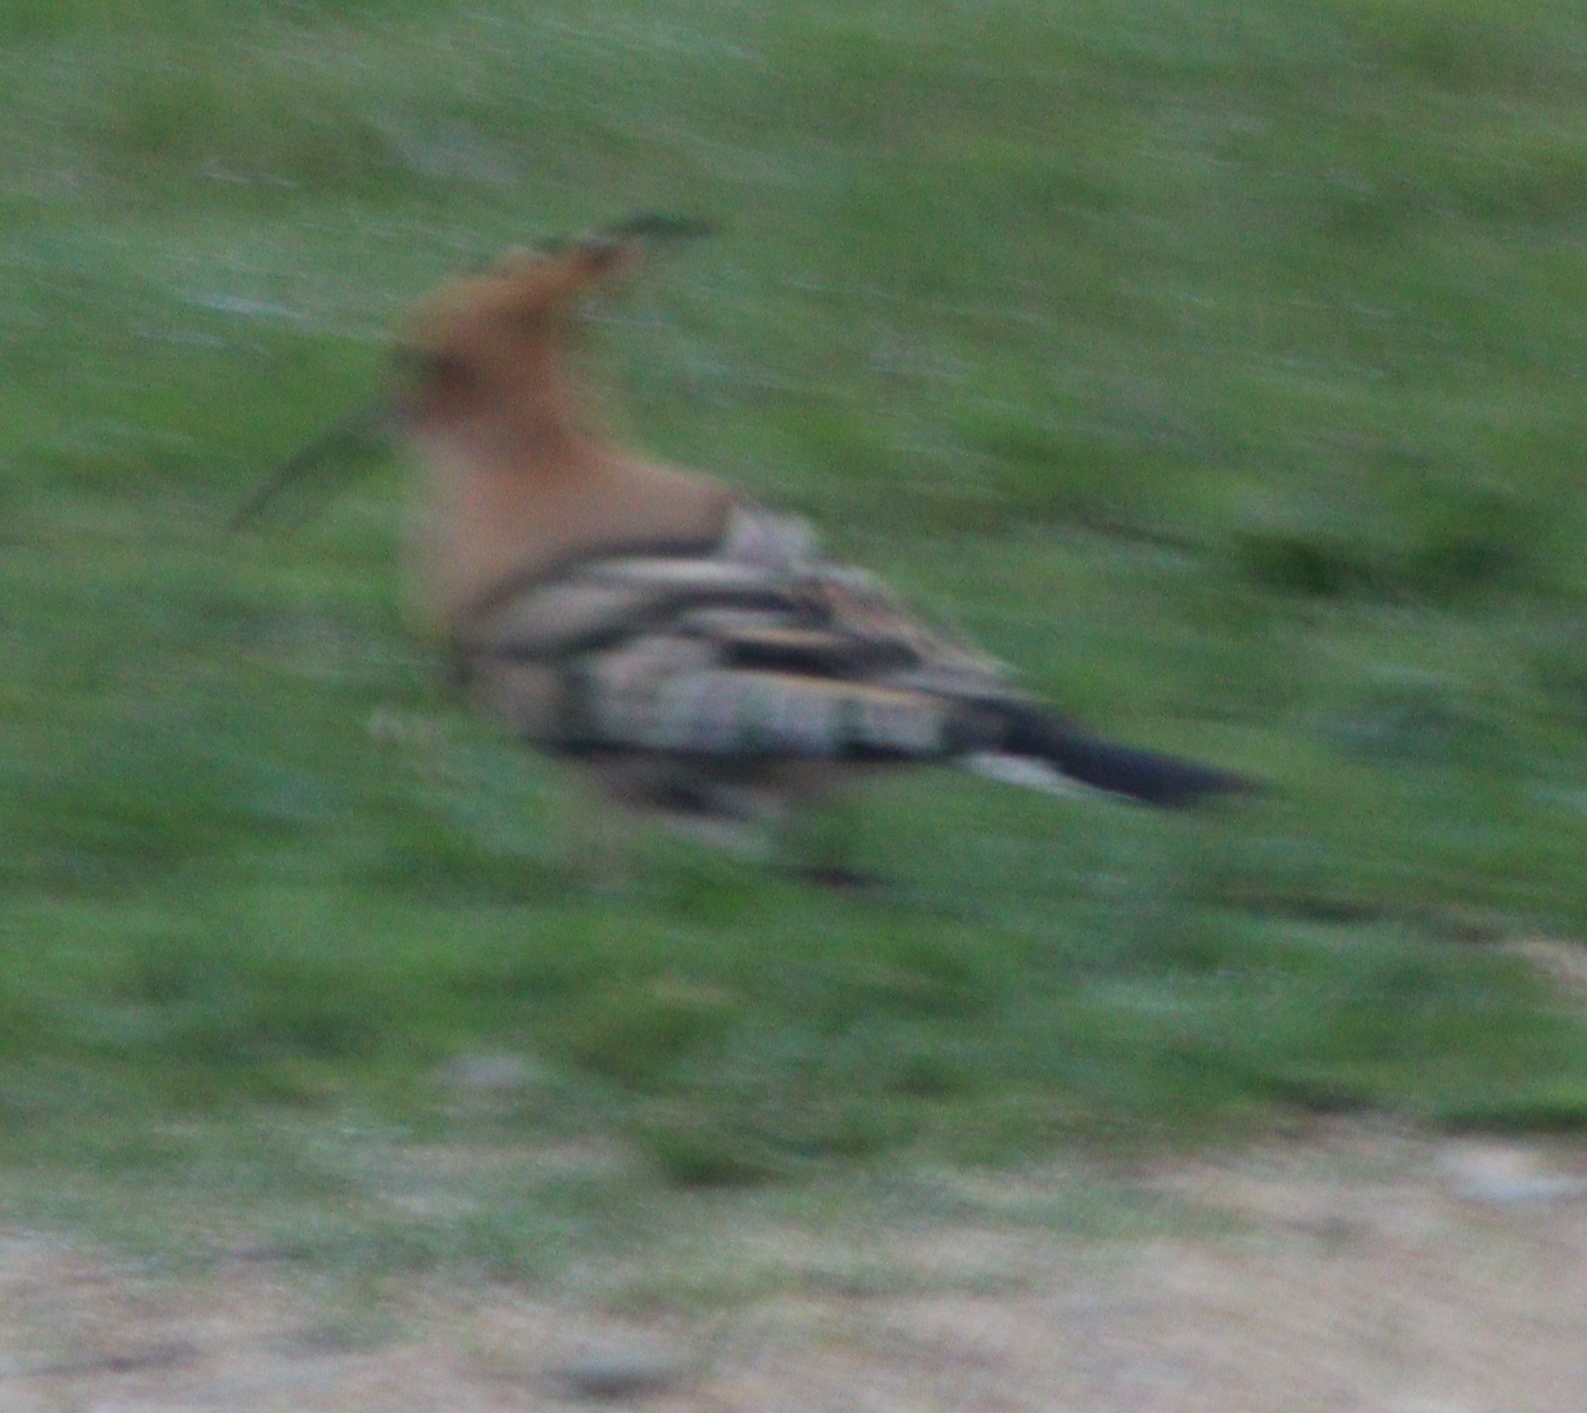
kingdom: Animalia
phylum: Chordata
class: Aves
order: Bucerotiformes
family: Upupidae
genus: Upupa
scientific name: Upupa epops
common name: Eurasian hoopoe
